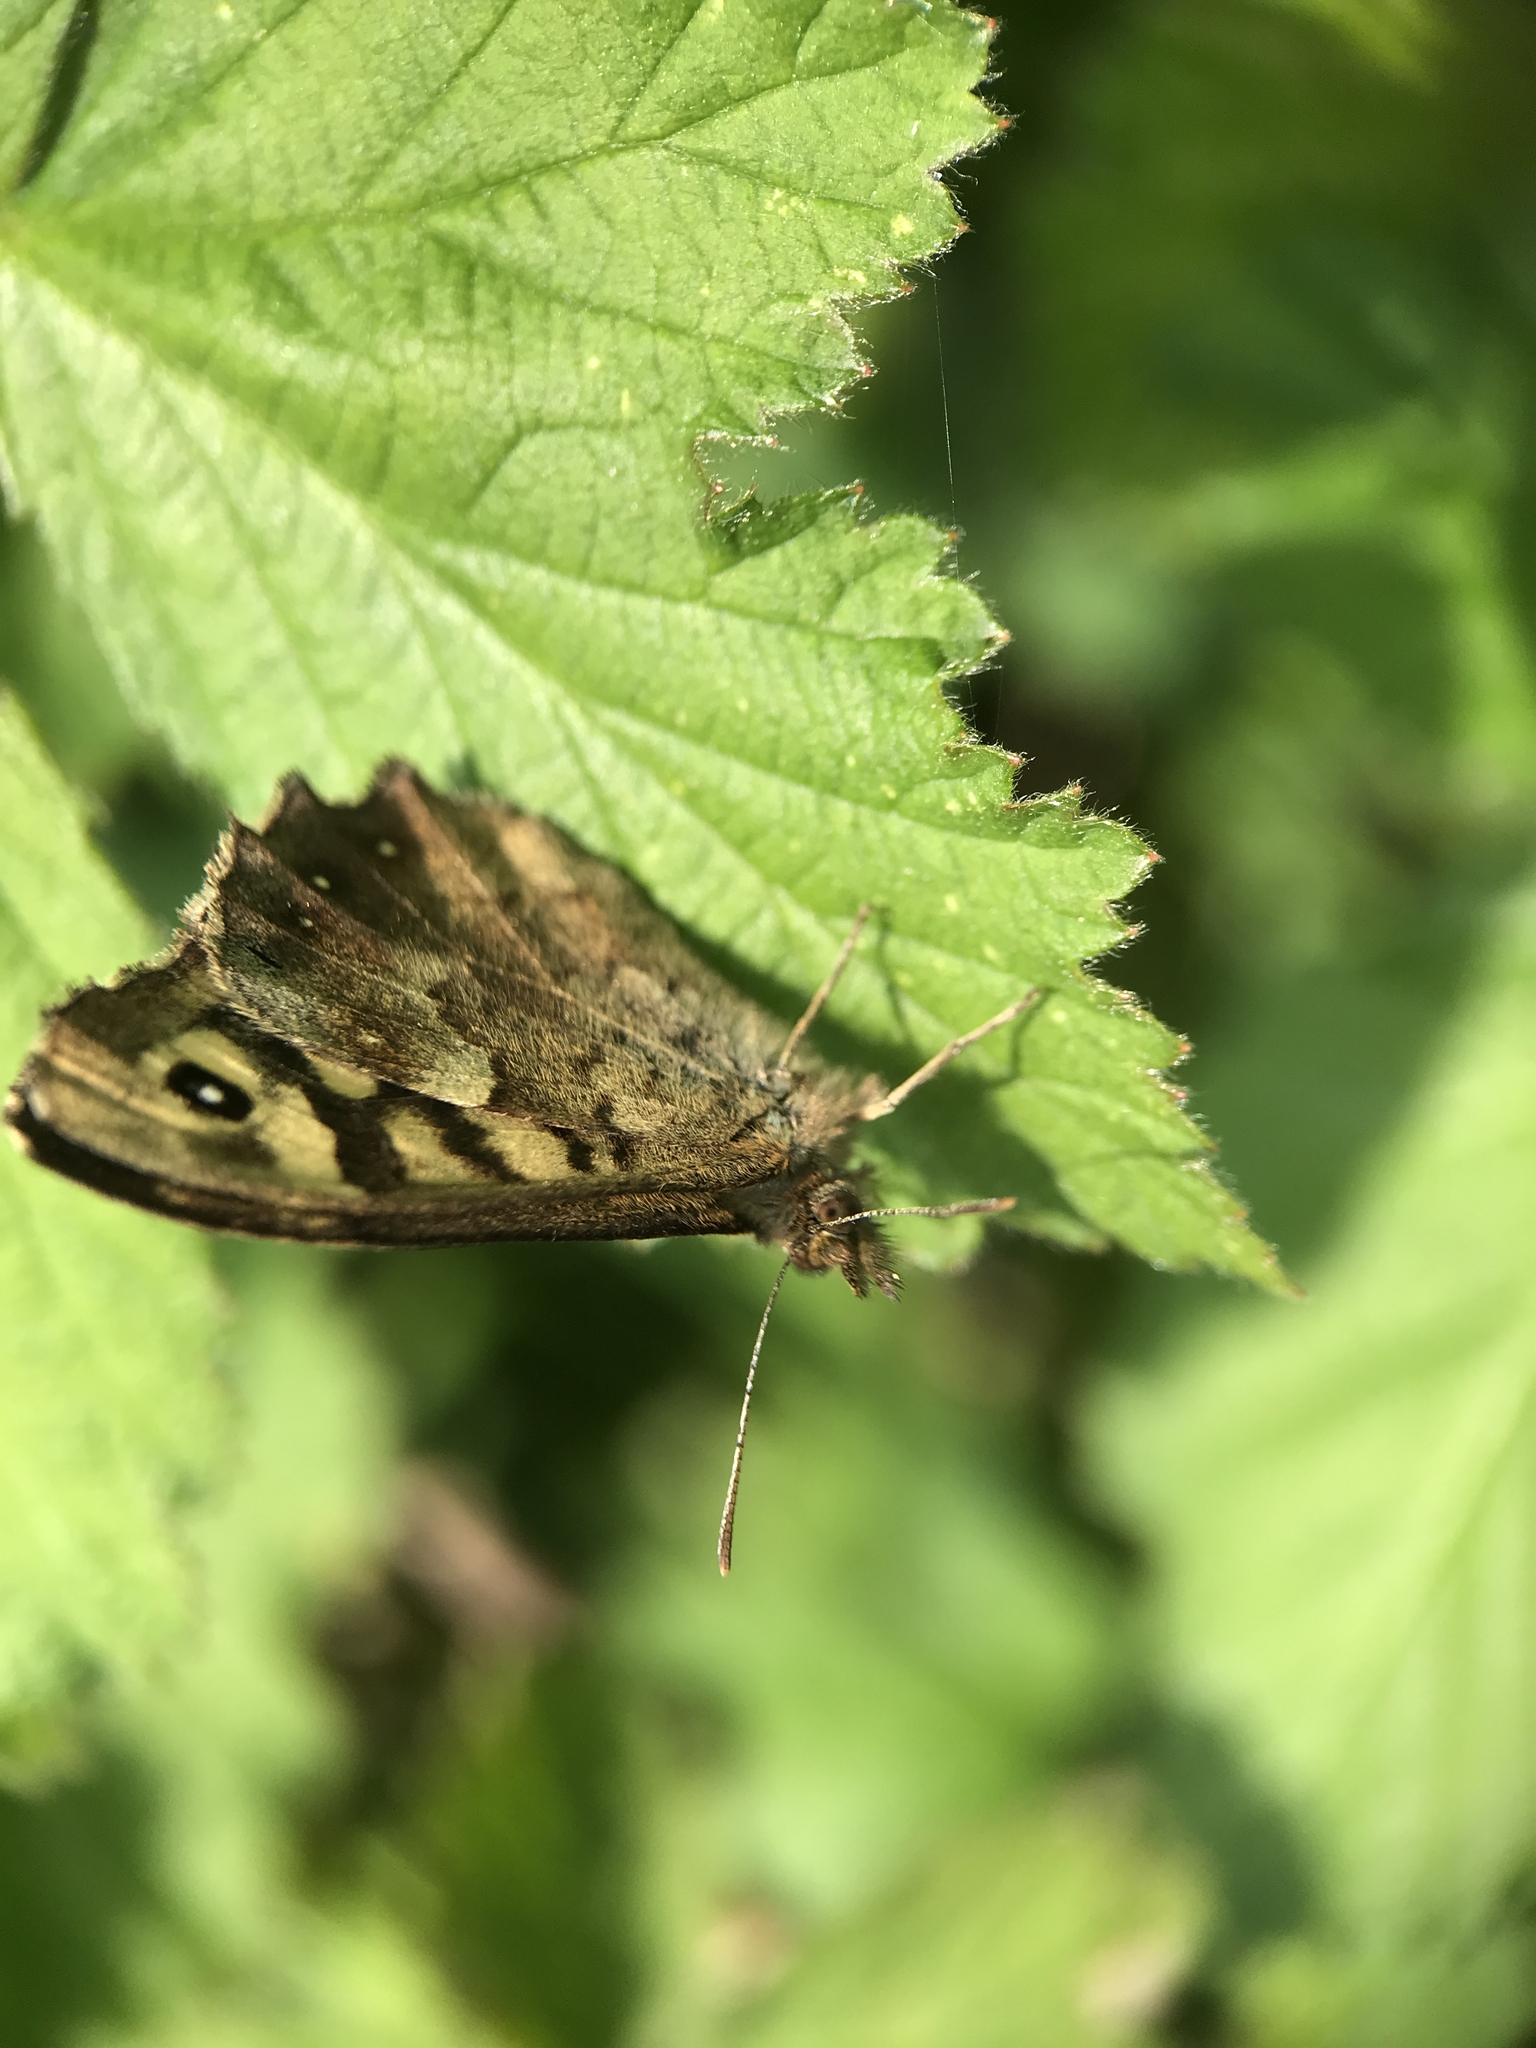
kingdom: Animalia
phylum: Arthropoda
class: Insecta
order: Lepidoptera
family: Nymphalidae
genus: Pararge
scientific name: Pararge aegeria
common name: Speckled wood
